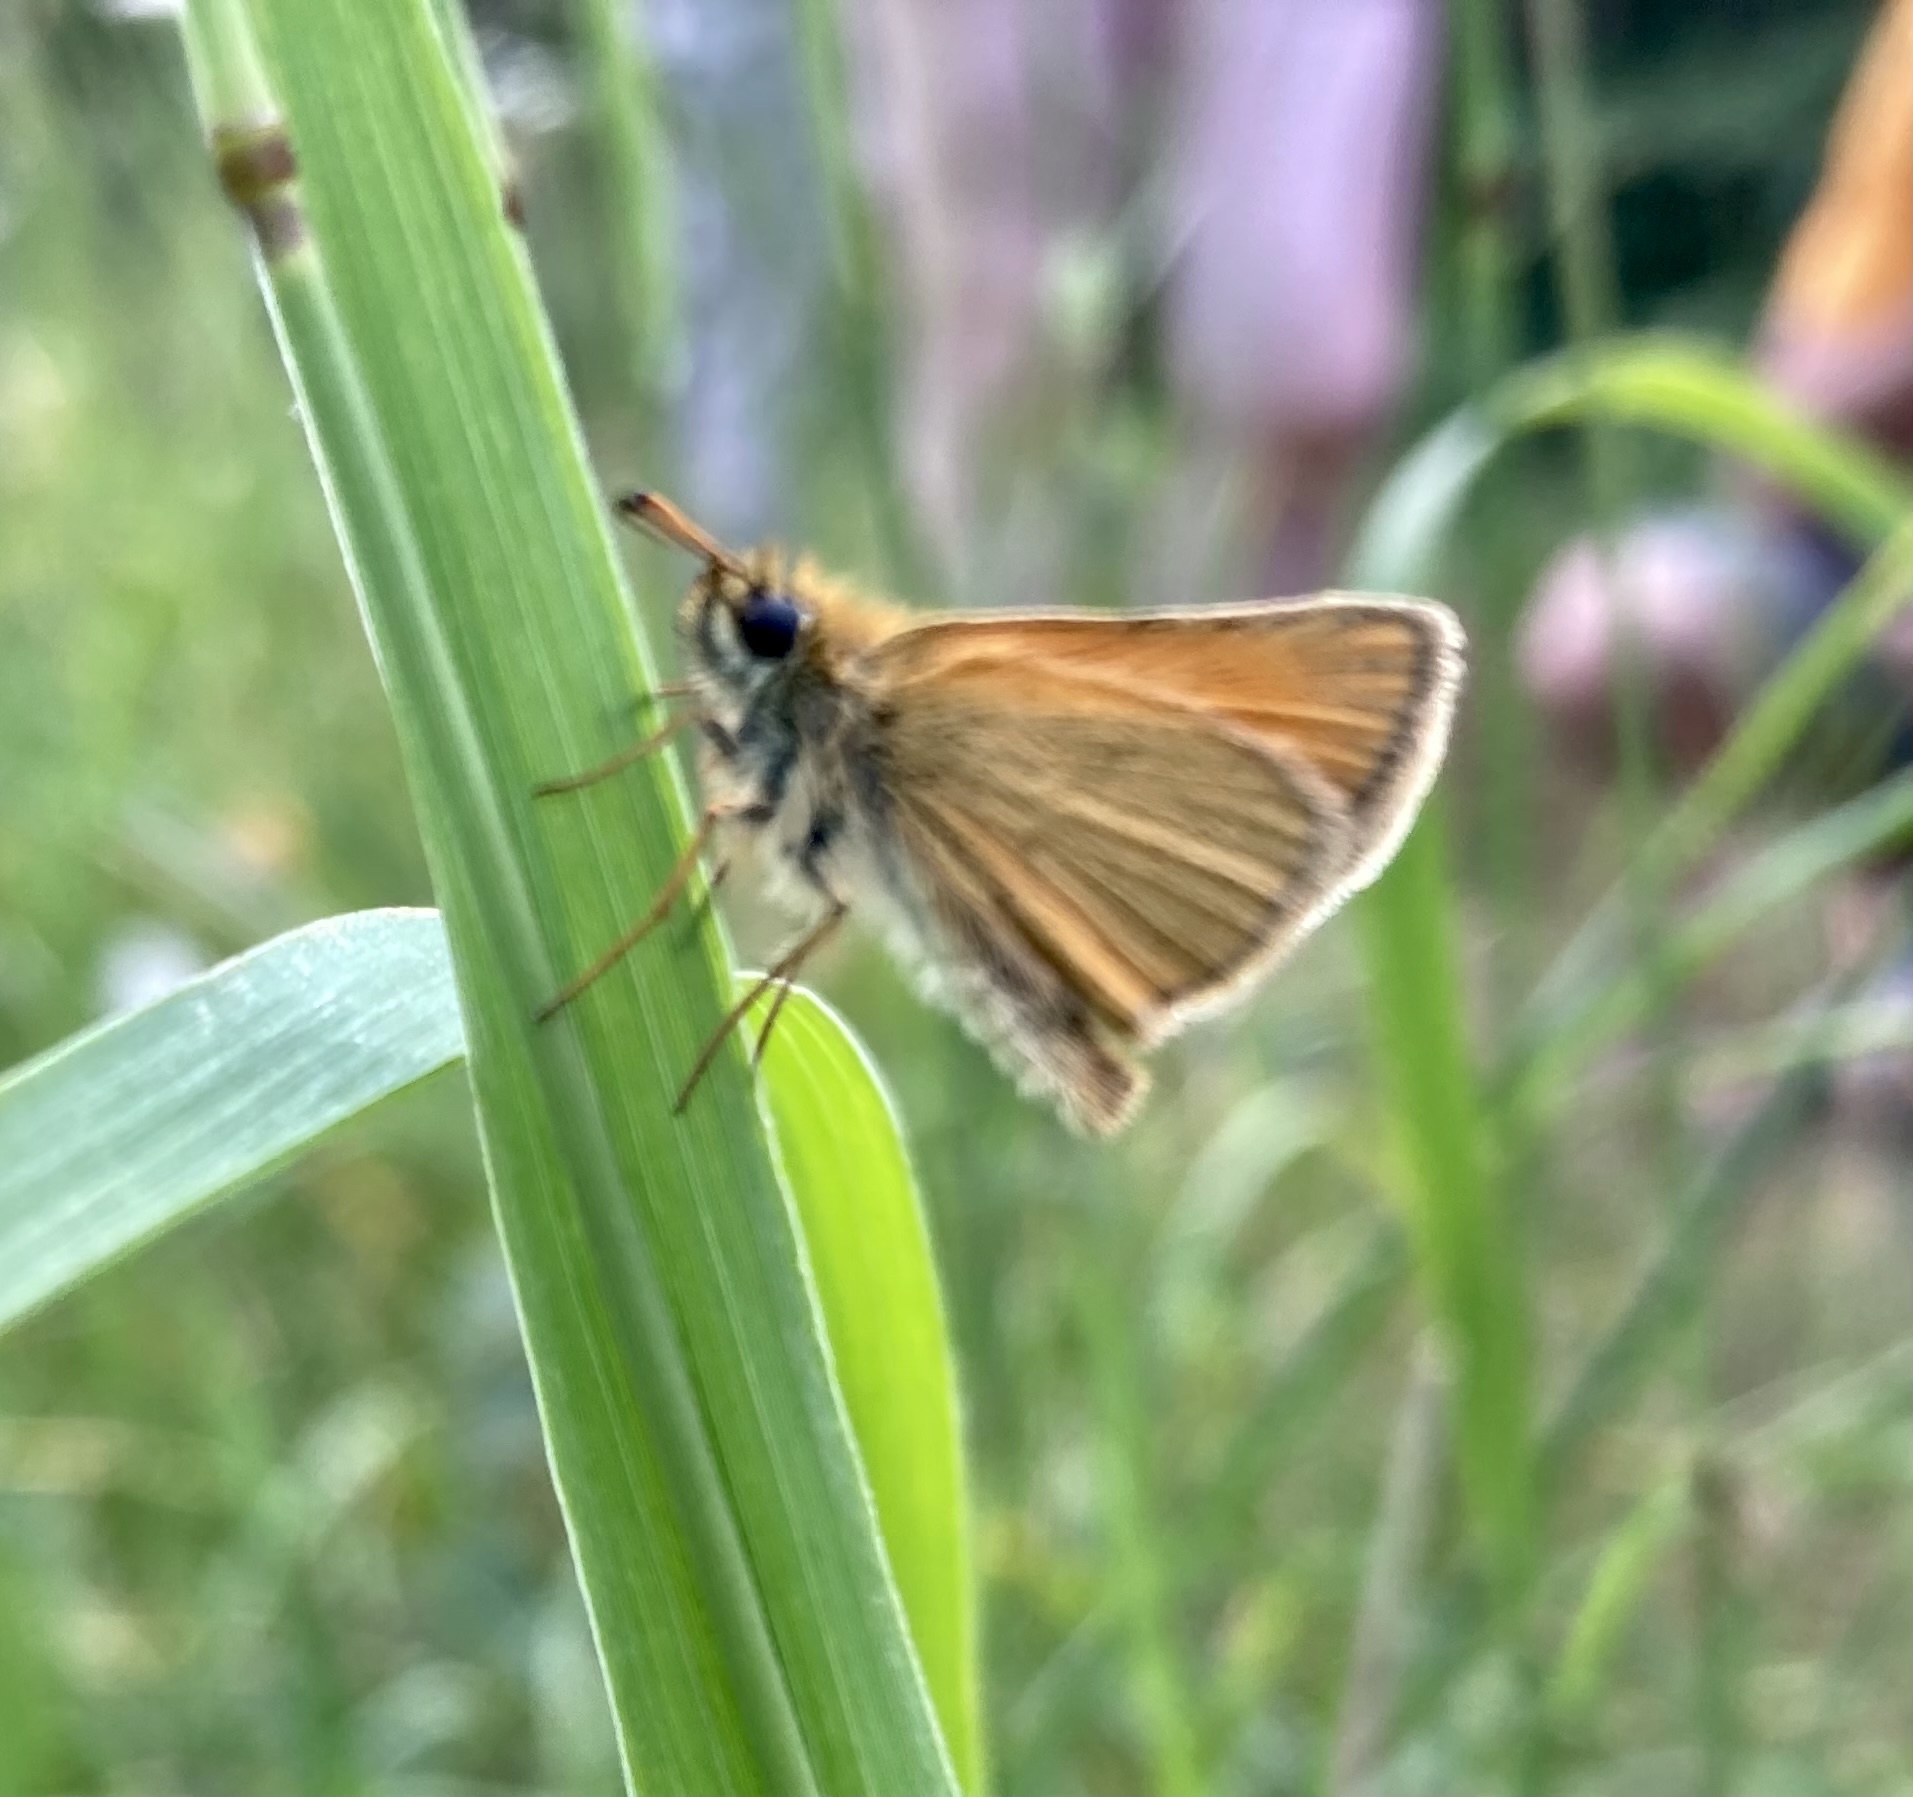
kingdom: Animalia
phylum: Arthropoda
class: Insecta
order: Lepidoptera
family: Hesperiidae
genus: Thymelicus
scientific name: Thymelicus lineola
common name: Essex skipper
